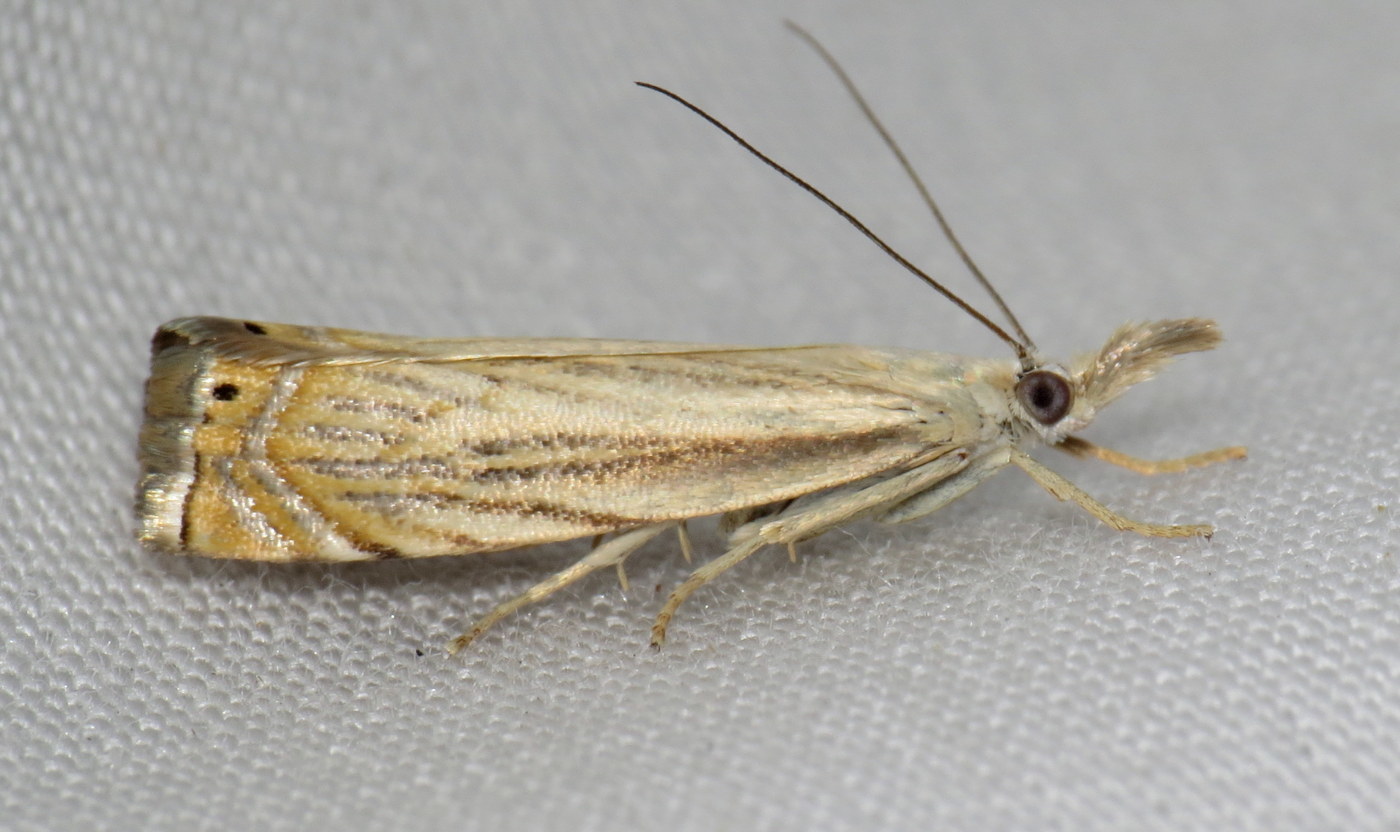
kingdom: Animalia
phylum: Arthropoda
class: Insecta
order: Lepidoptera
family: Crambidae
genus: Chrysoteuchia
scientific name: Chrysoteuchia topiarius
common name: Topiary grass-veneer
